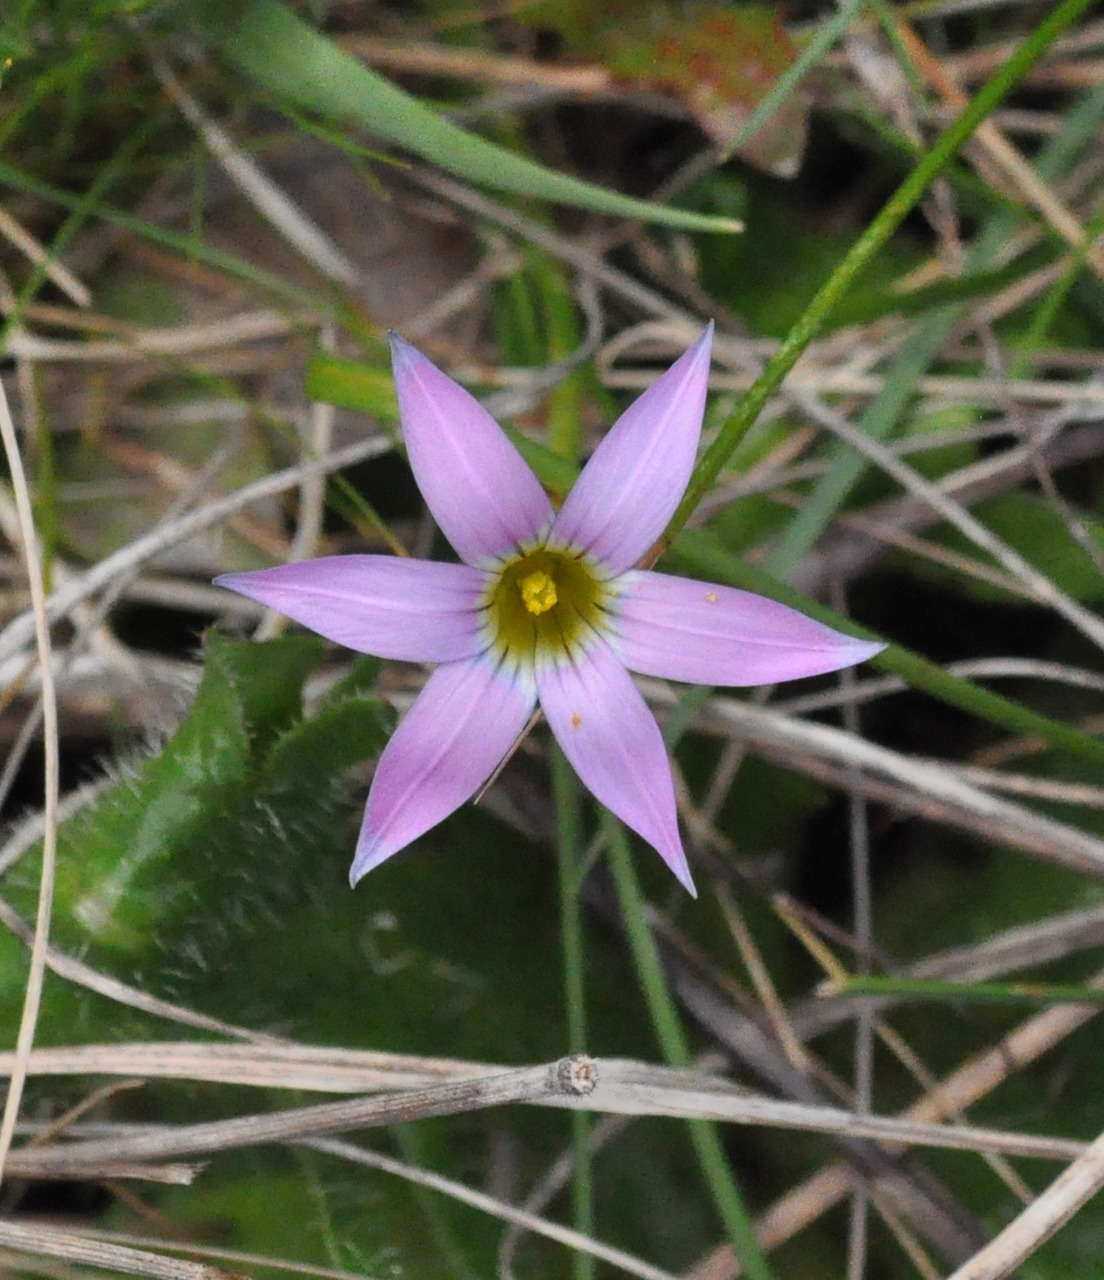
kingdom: Plantae
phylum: Tracheophyta
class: Liliopsida
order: Asparagales
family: Iridaceae
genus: Romulea
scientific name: Romulea rosea
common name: Oniongrass
